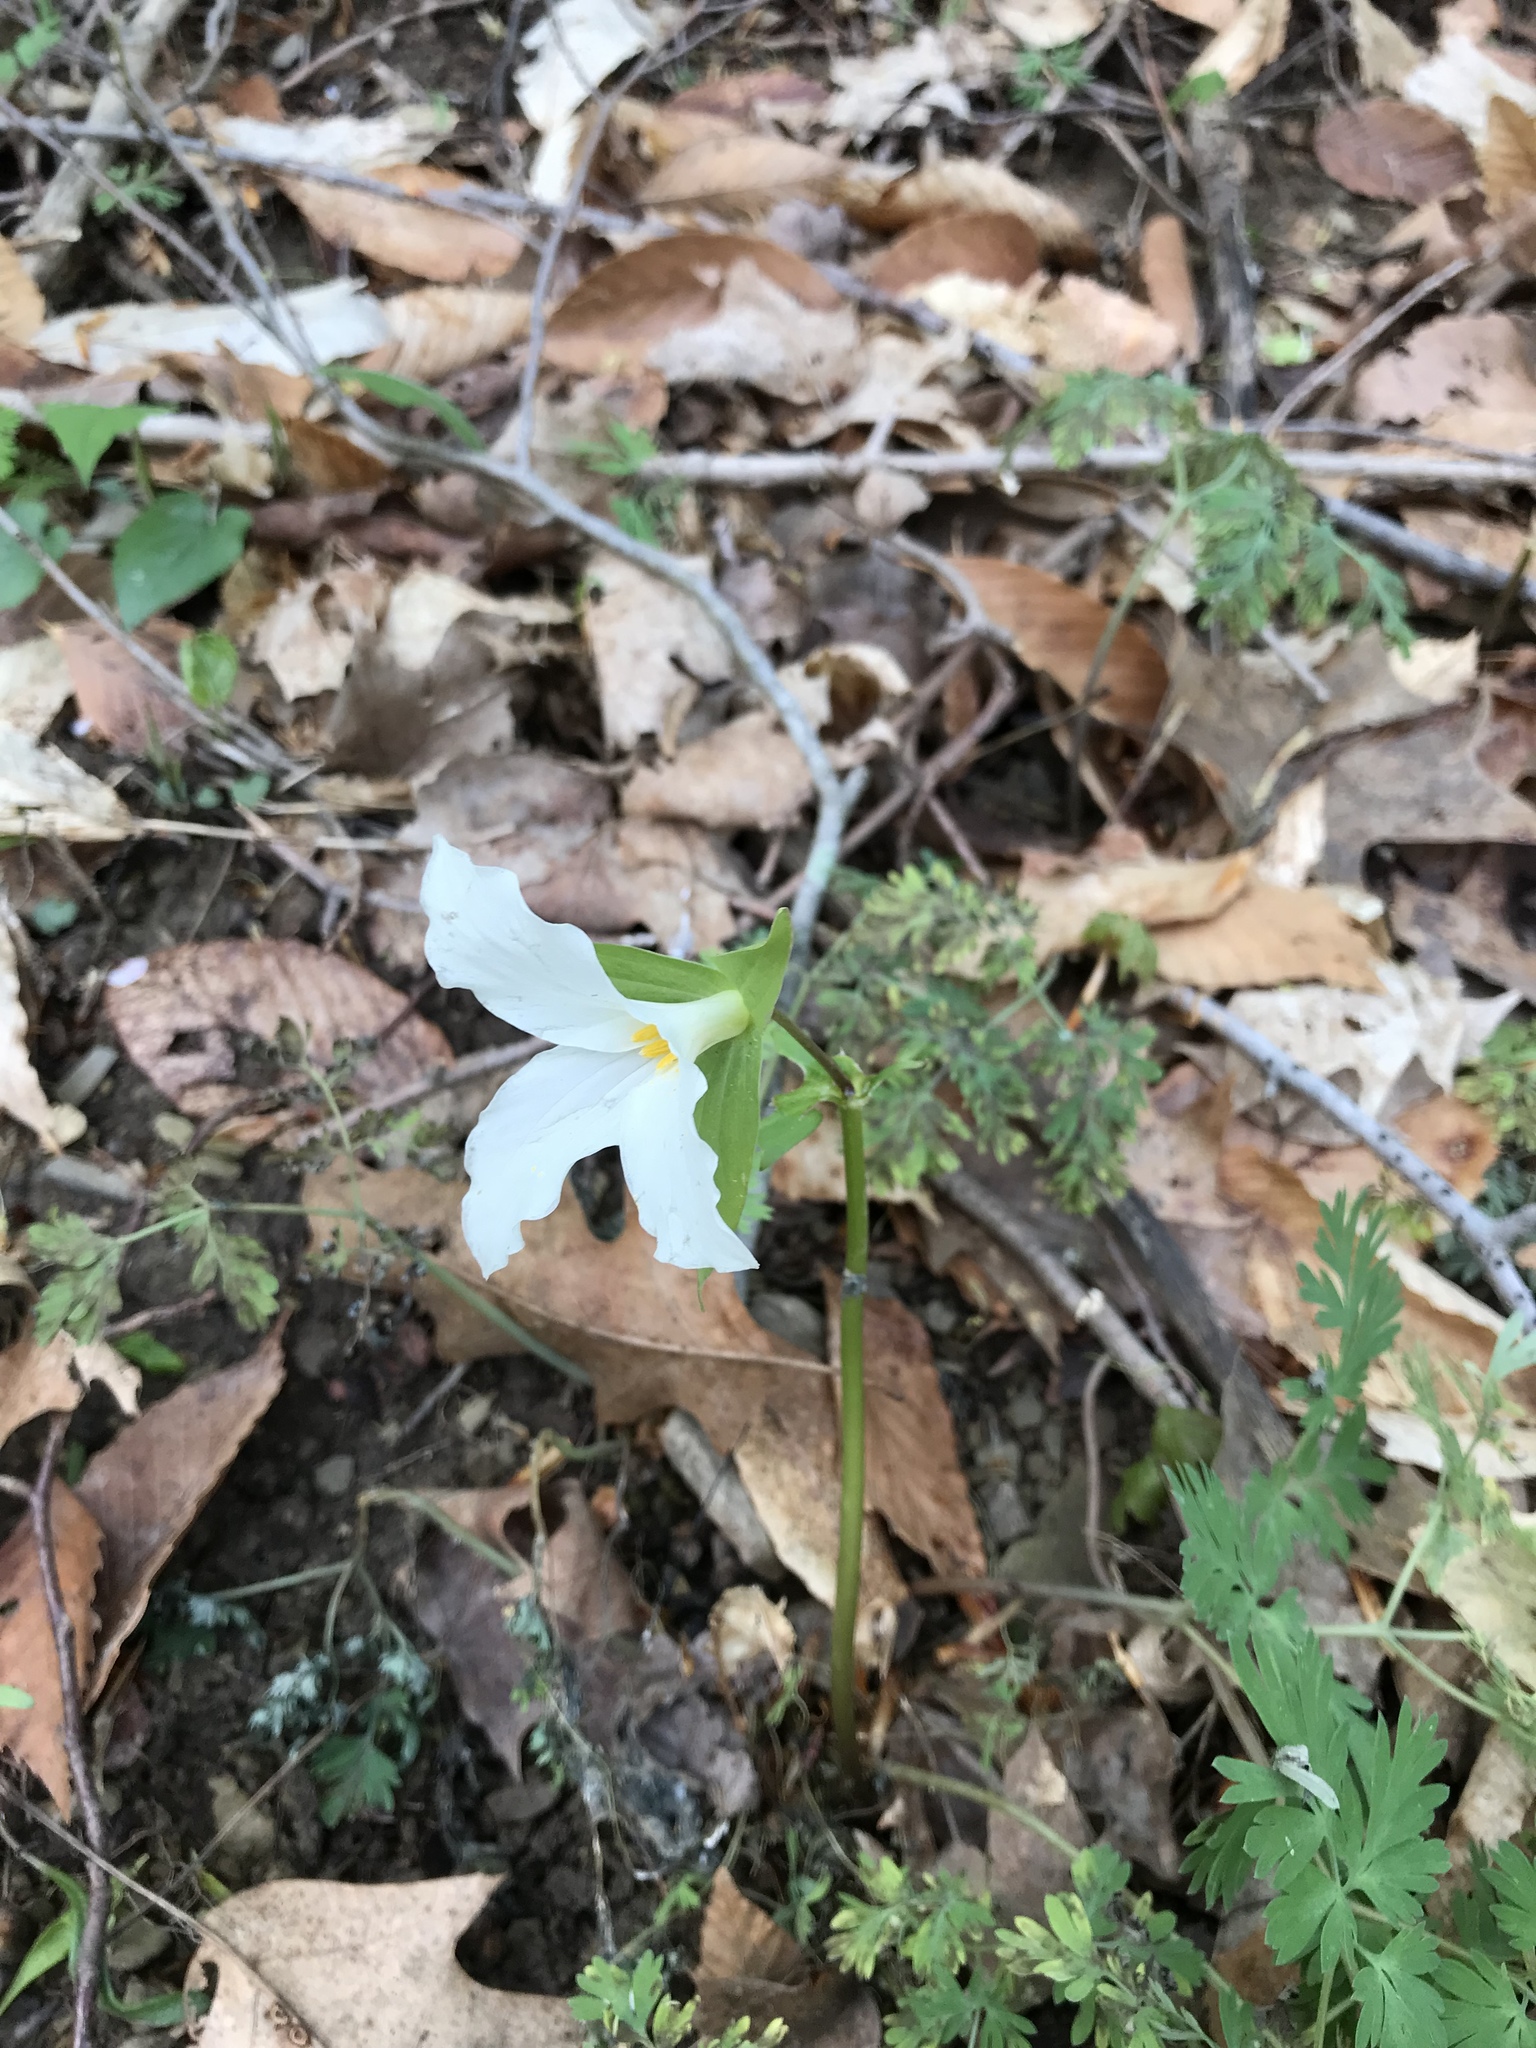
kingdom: Plantae
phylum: Tracheophyta
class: Liliopsida
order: Liliales
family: Melanthiaceae
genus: Trillium
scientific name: Trillium grandiflorum
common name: Great white trillium
